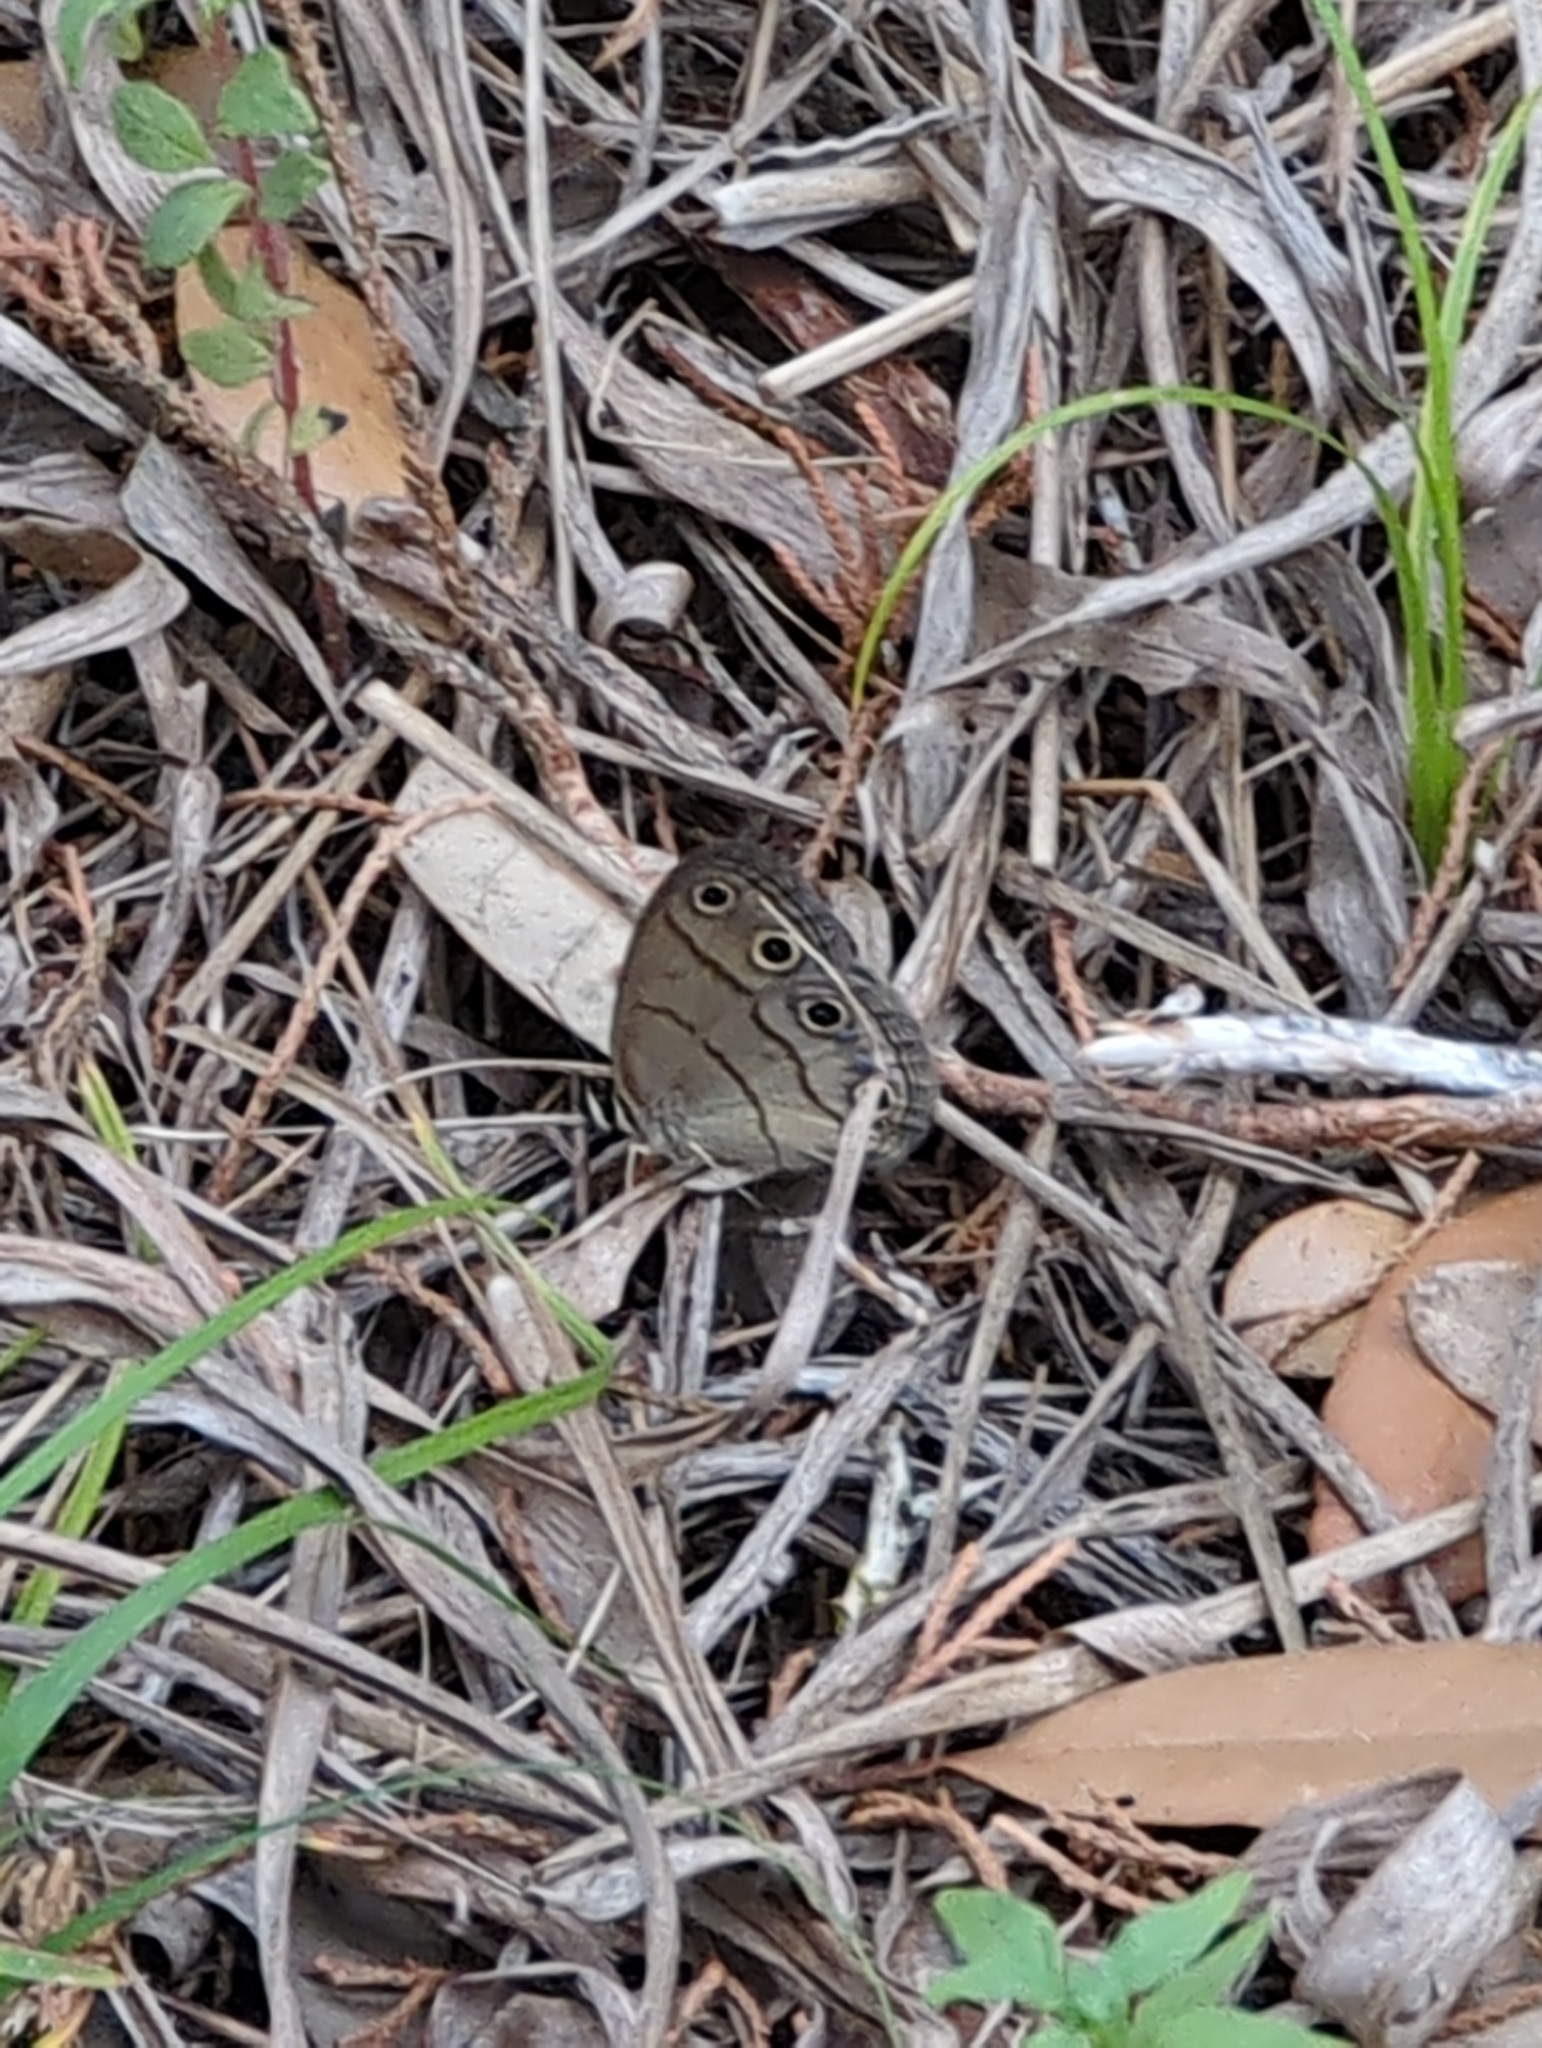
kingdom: Animalia
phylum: Arthropoda
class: Insecta
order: Lepidoptera
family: Nymphalidae
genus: Euptychia
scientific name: Euptychia cymela
